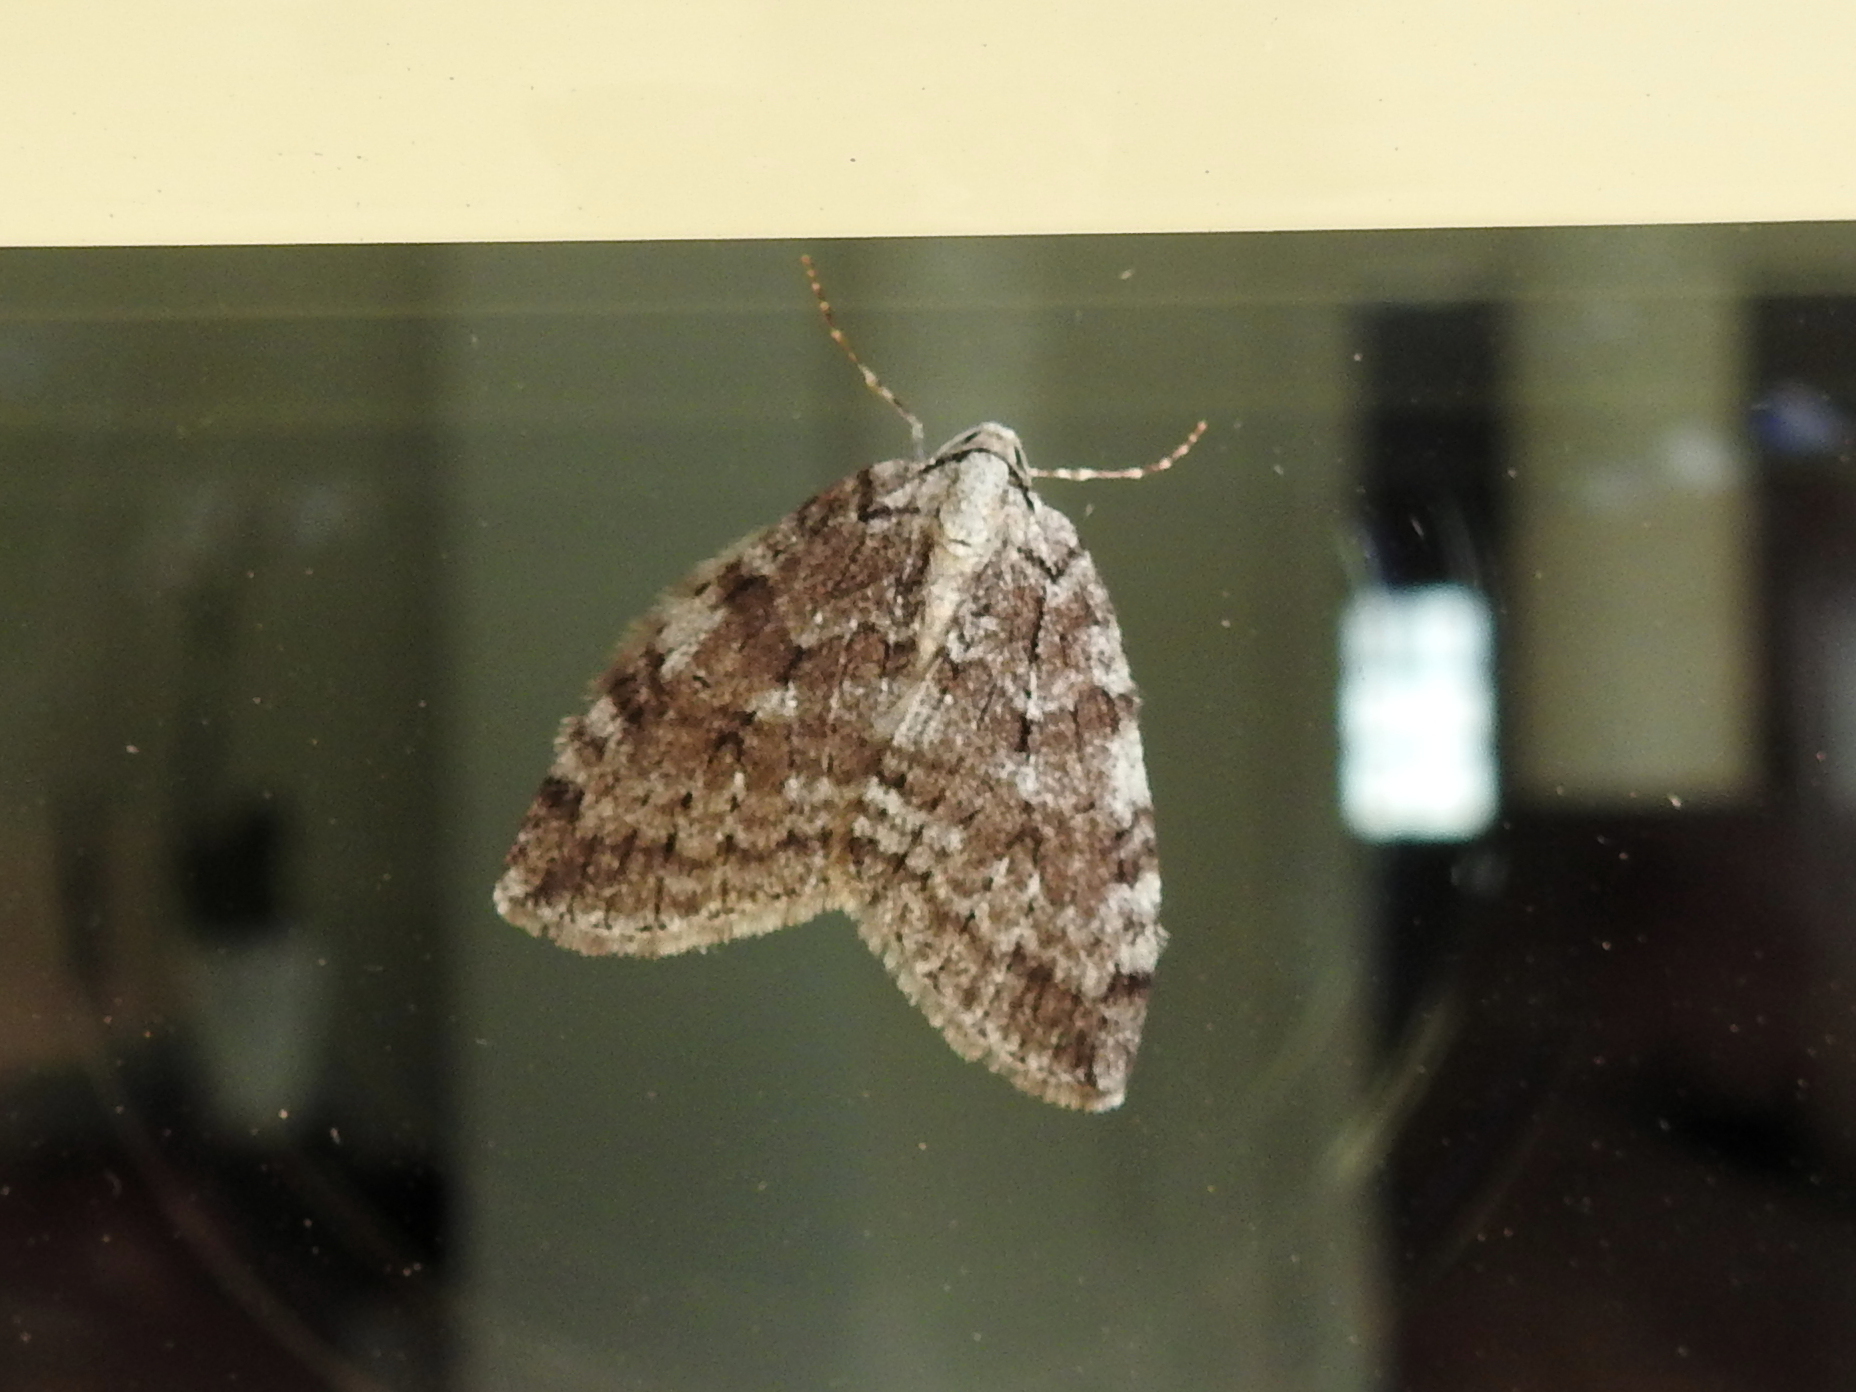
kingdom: Animalia
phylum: Arthropoda
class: Insecta
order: Lepidoptera
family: Geometridae
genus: Epirrita
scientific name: Epirrita
